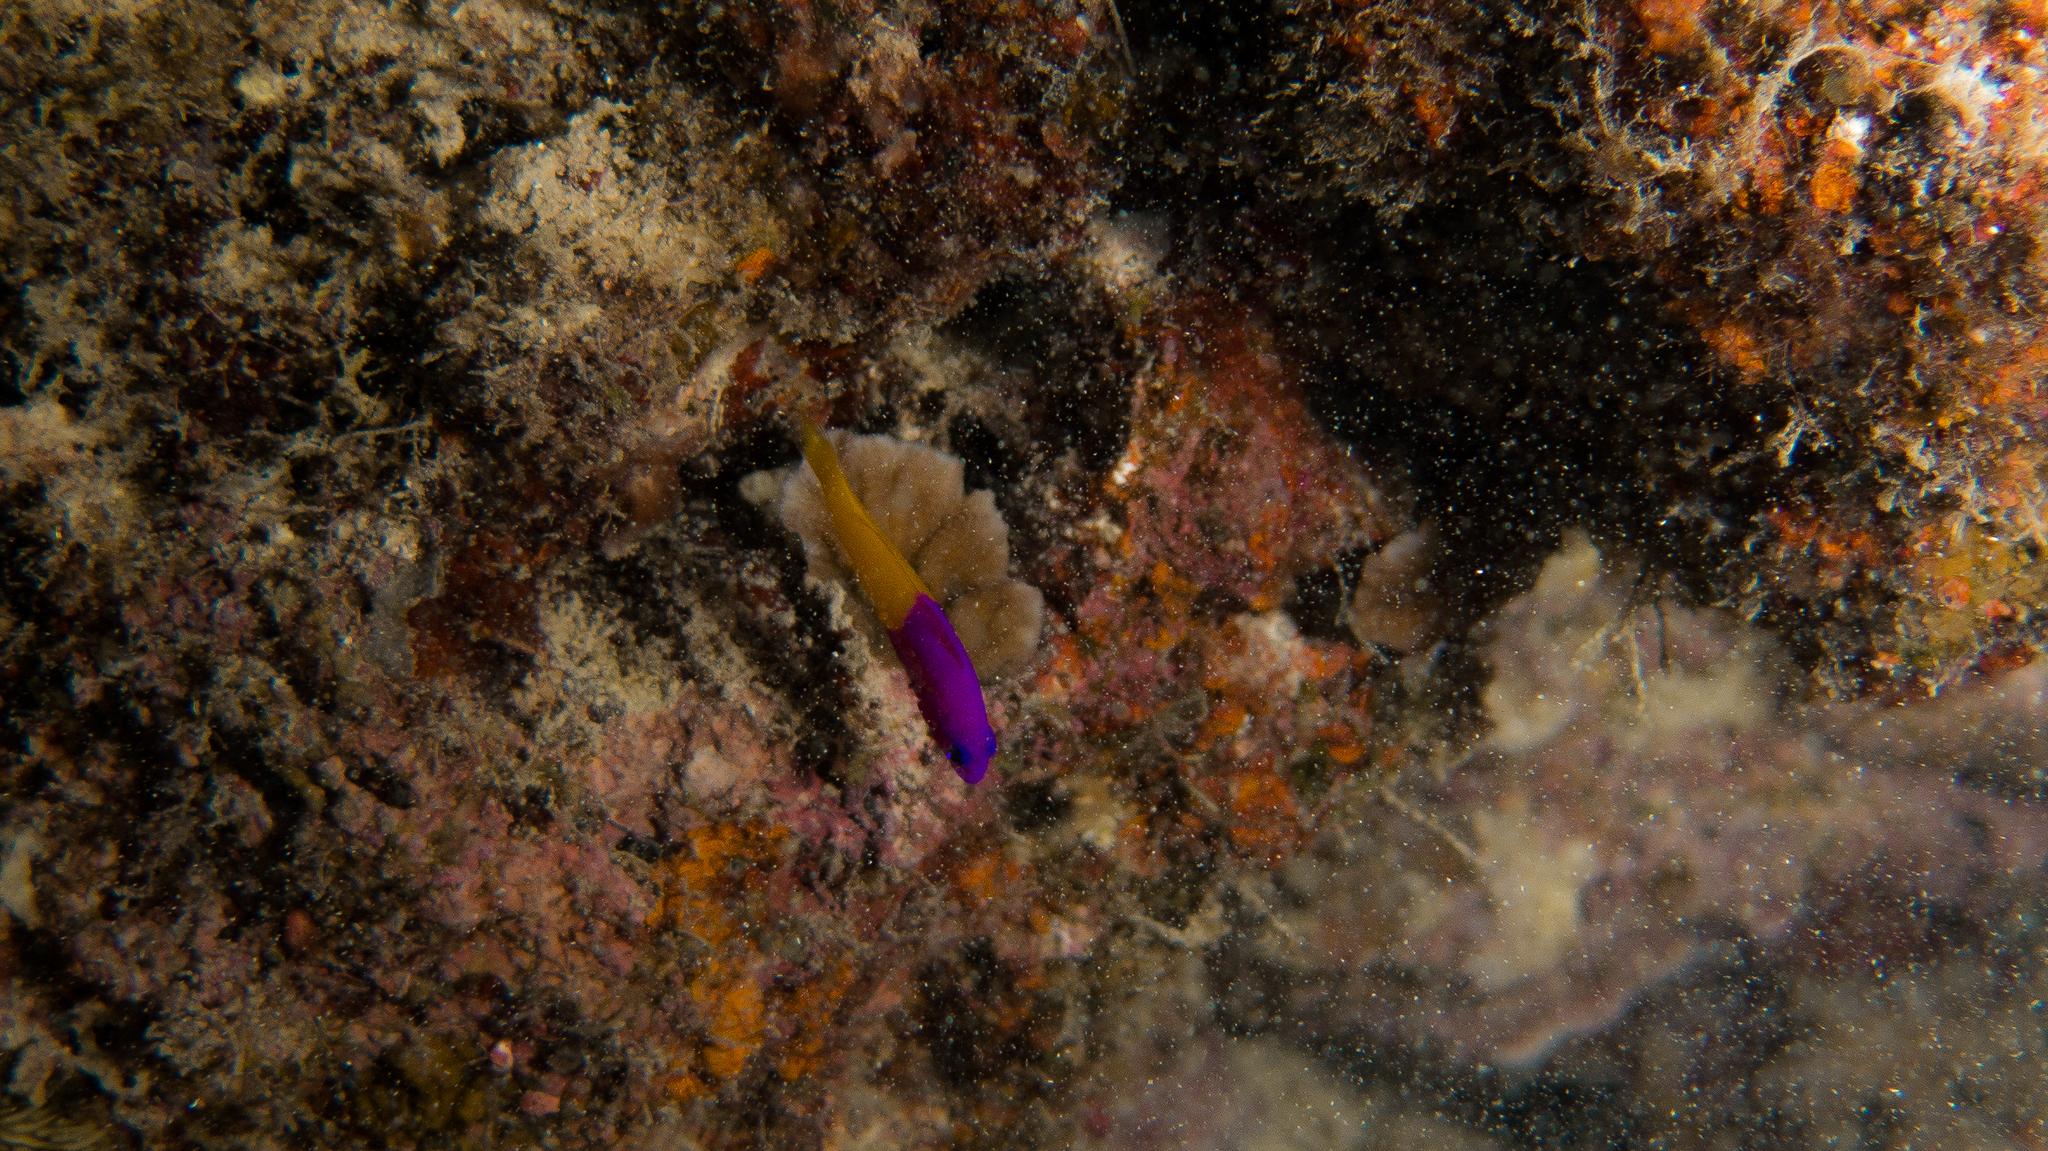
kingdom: Animalia
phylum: Chordata
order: Perciformes
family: Pseudochromidae
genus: Pictichromis
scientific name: Pictichromis coralensis
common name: Bicoloured dottyback
